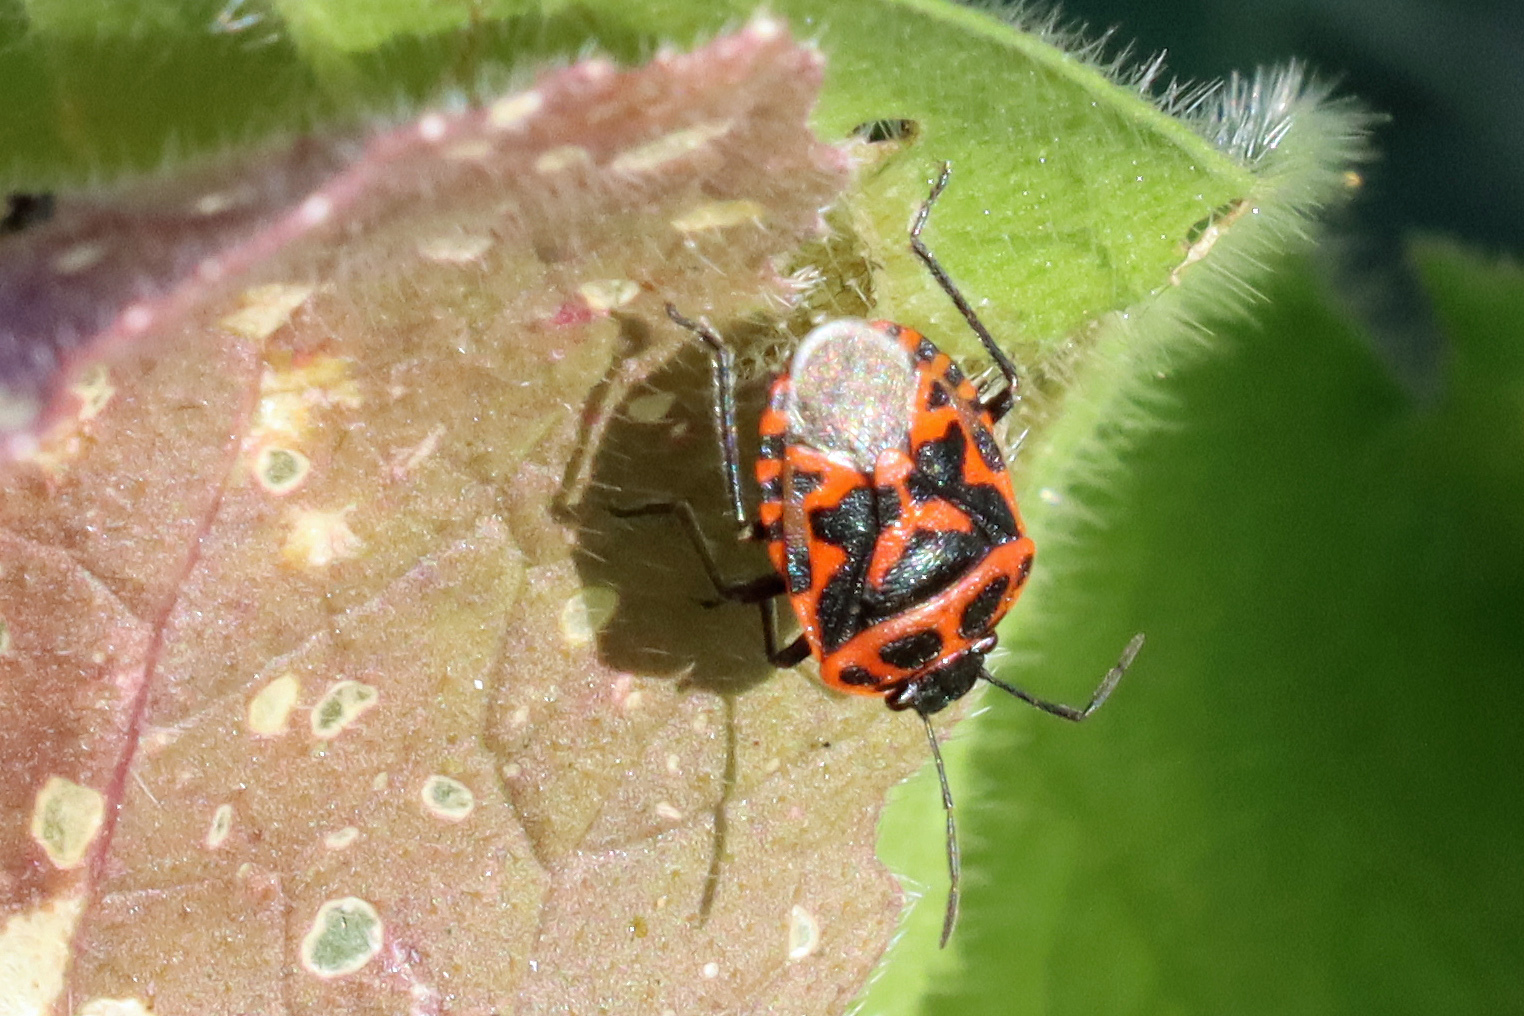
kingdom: Animalia
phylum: Arthropoda
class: Insecta
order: Hemiptera
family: Pentatomidae
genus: Eurydema
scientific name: Eurydema ornata
